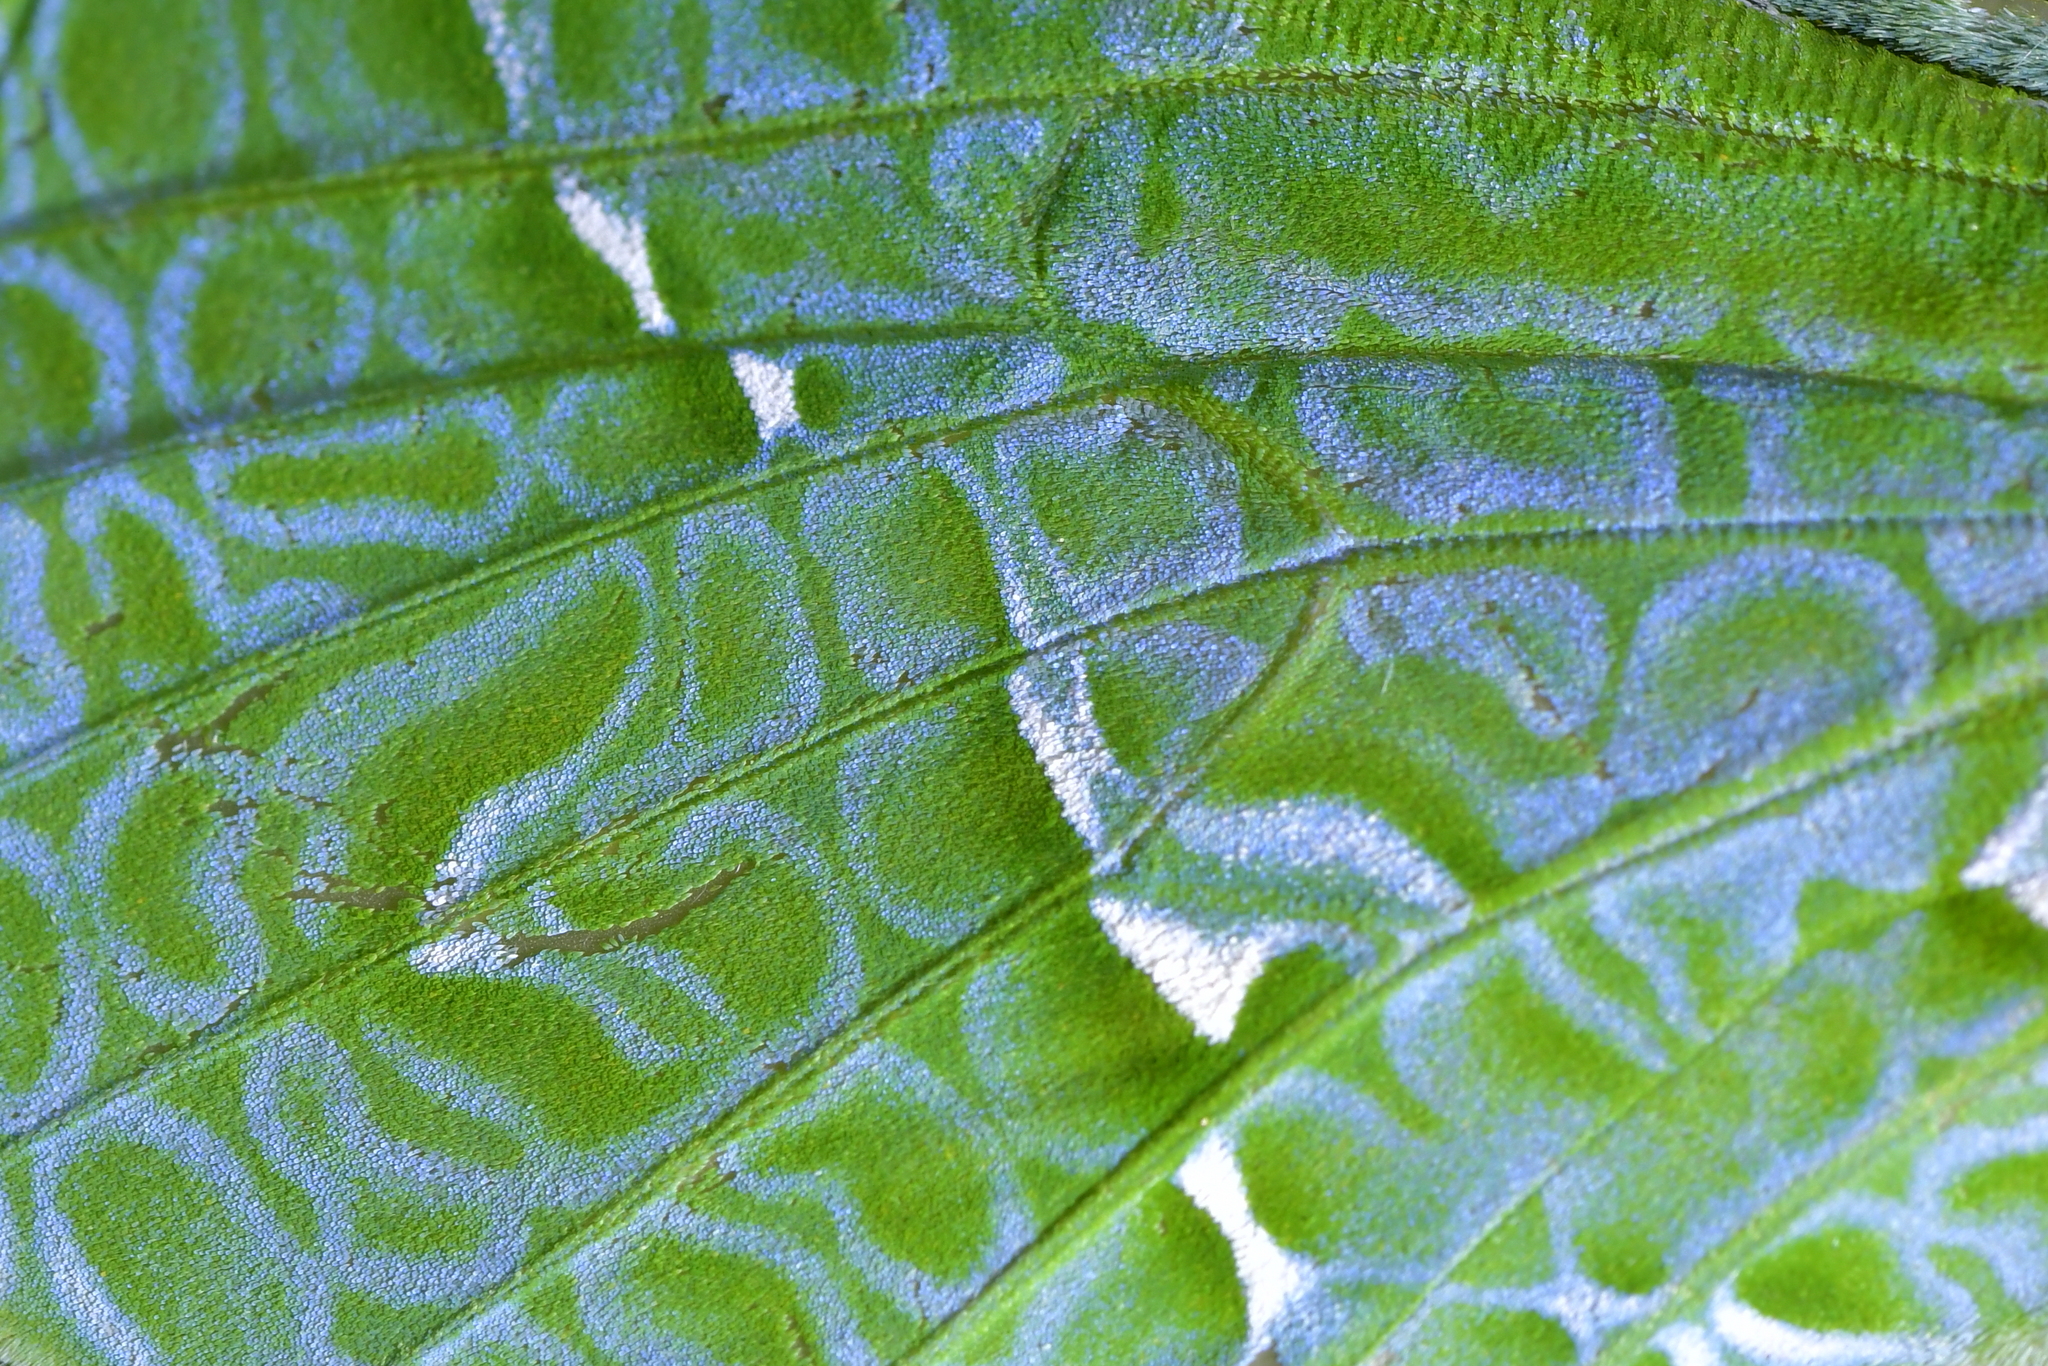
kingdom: Animalia
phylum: Arthropoda
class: Insecta
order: Lepidoptera
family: Hepialidae
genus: Aenetus
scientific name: Aenetus virescens
